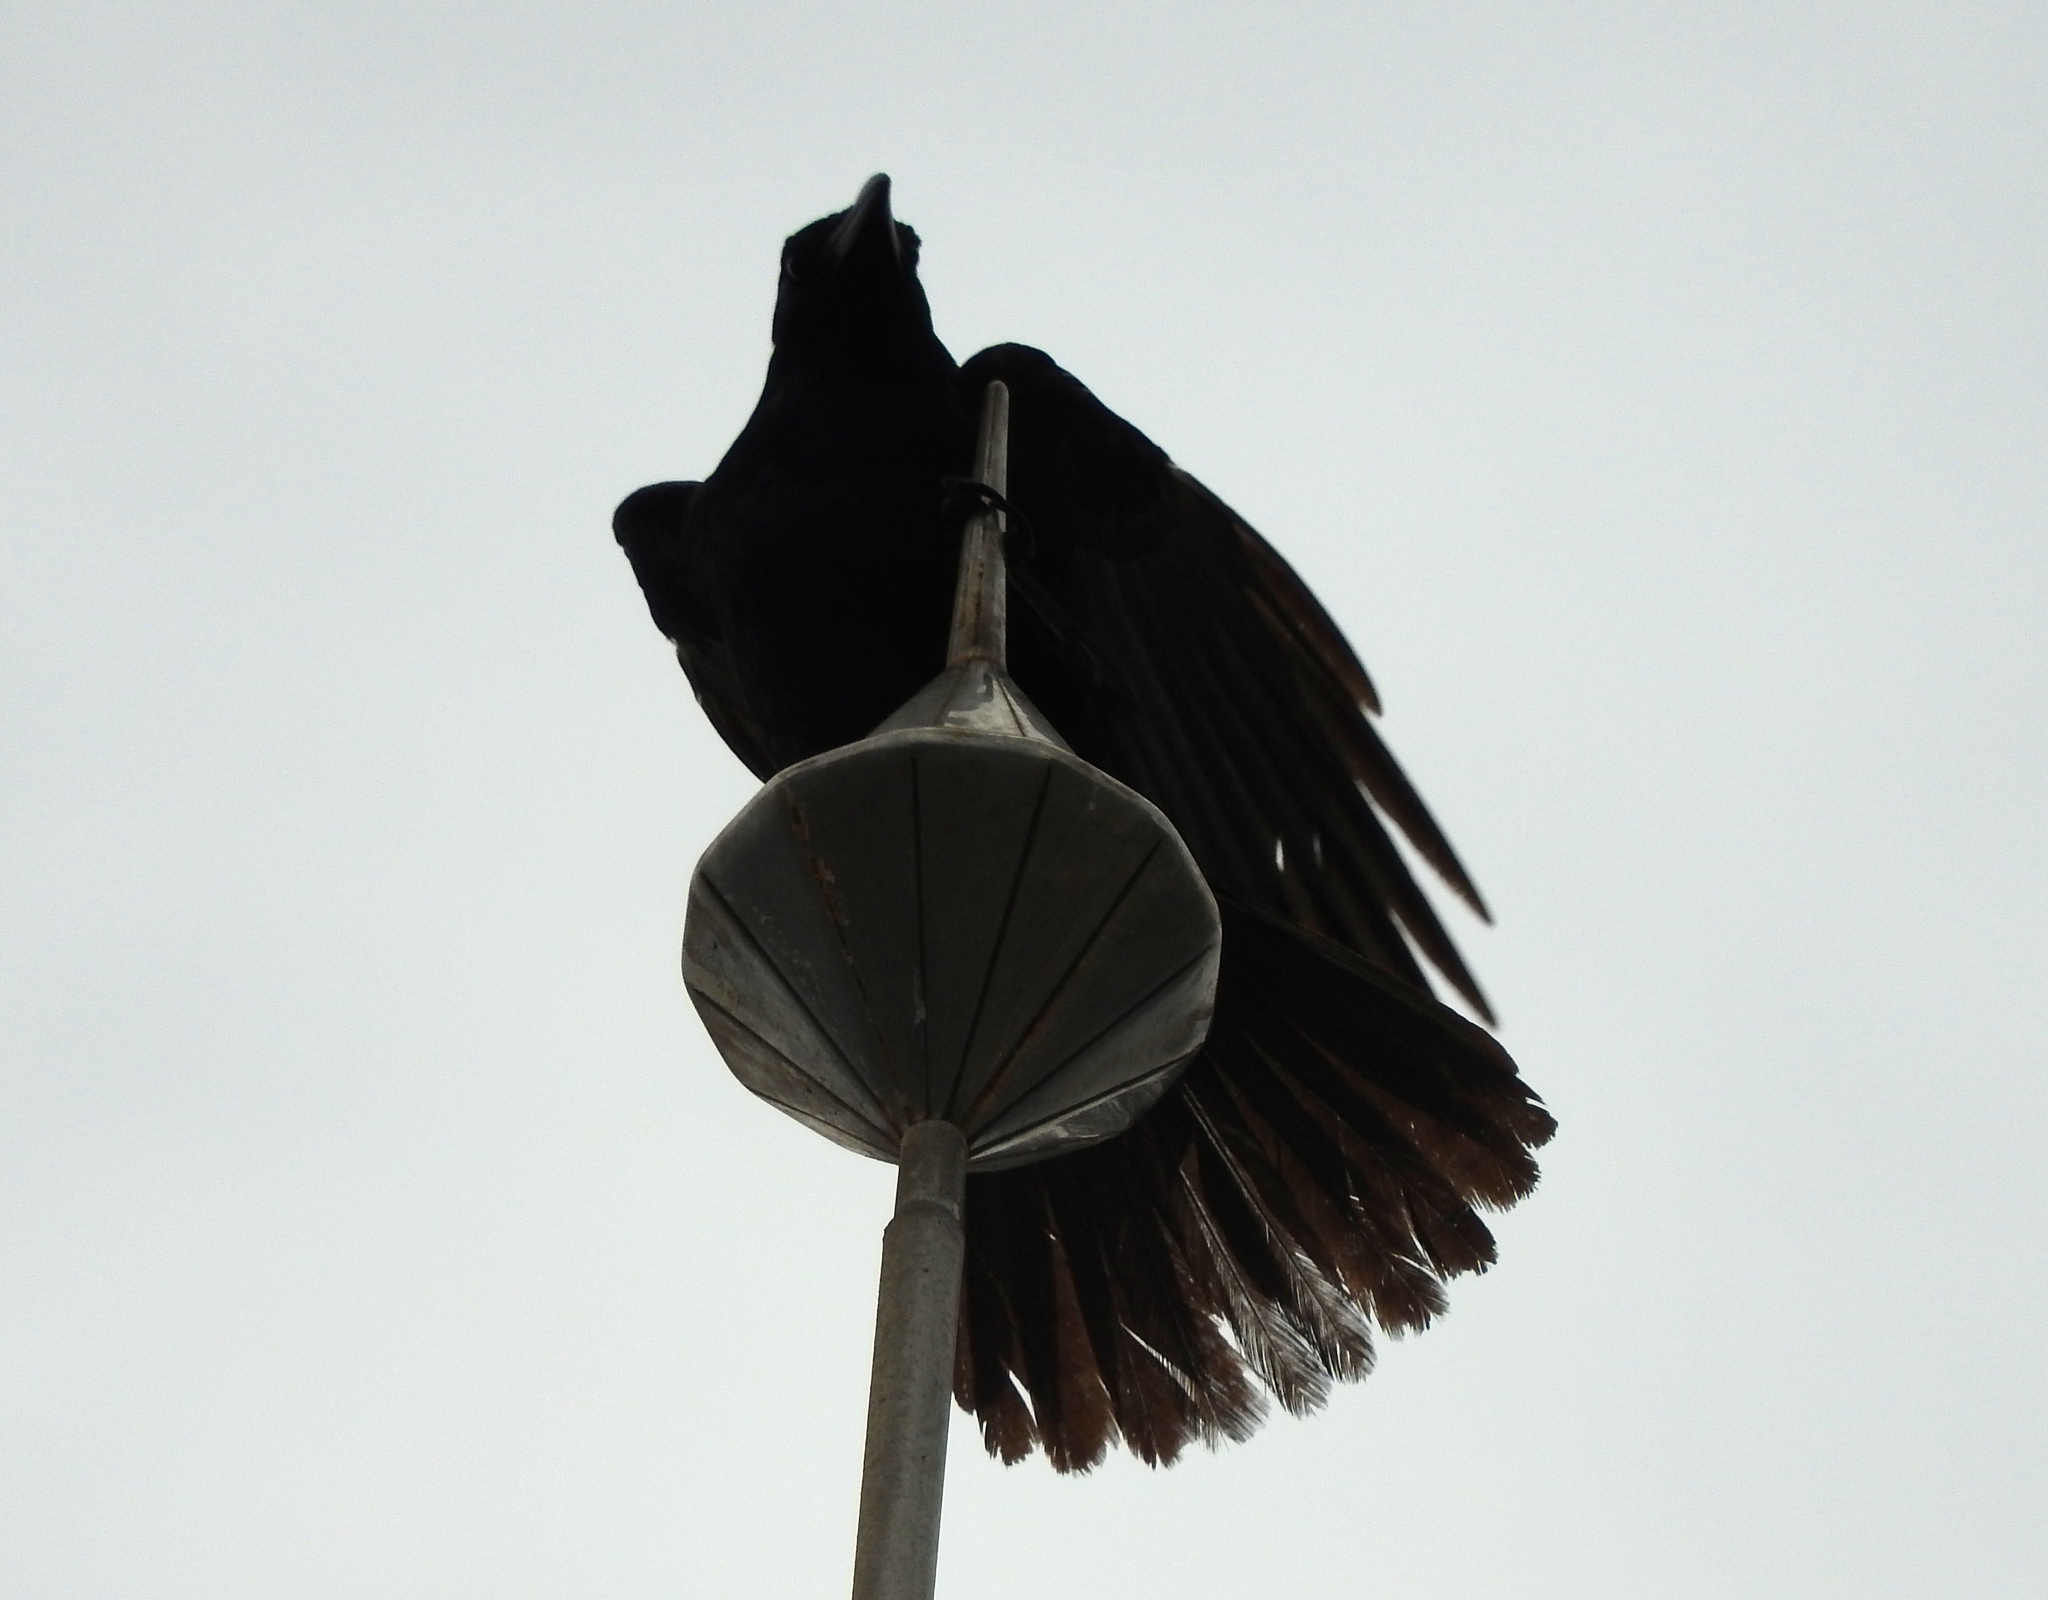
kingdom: Animalia
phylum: Chordata
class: Aves
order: Passeriformes
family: Corvidae
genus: Corvus
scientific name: Corvus sinaloae
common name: Sinaloa crow
